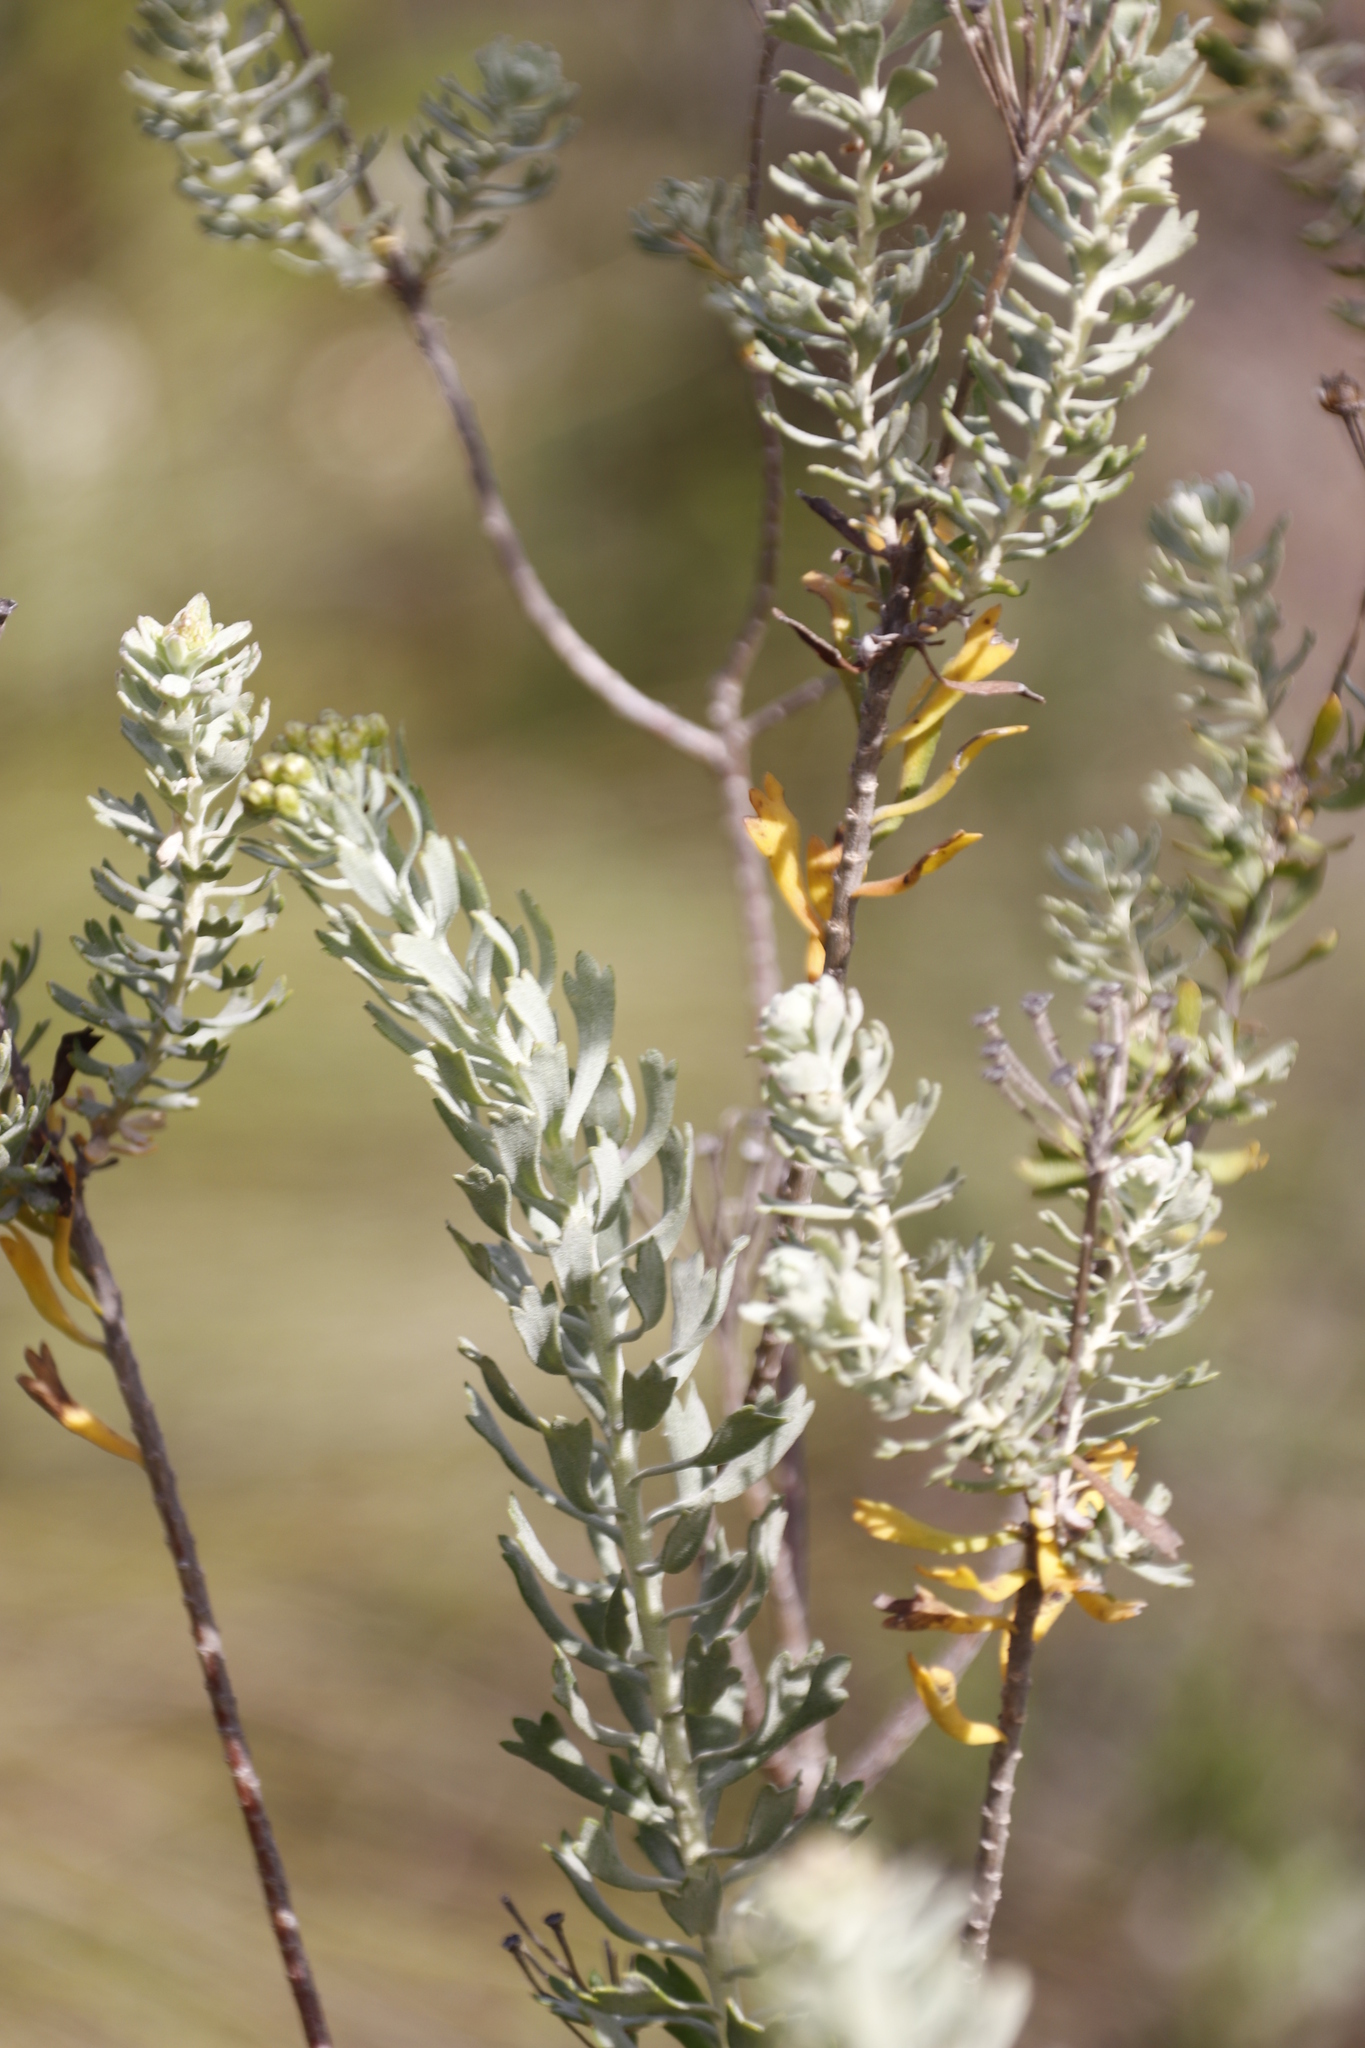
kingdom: Plantae
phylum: Tracheophyta
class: Magnoliopsida
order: Asterales
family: Asteraceae
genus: Athanasia
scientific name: Athanasia trifurcata
